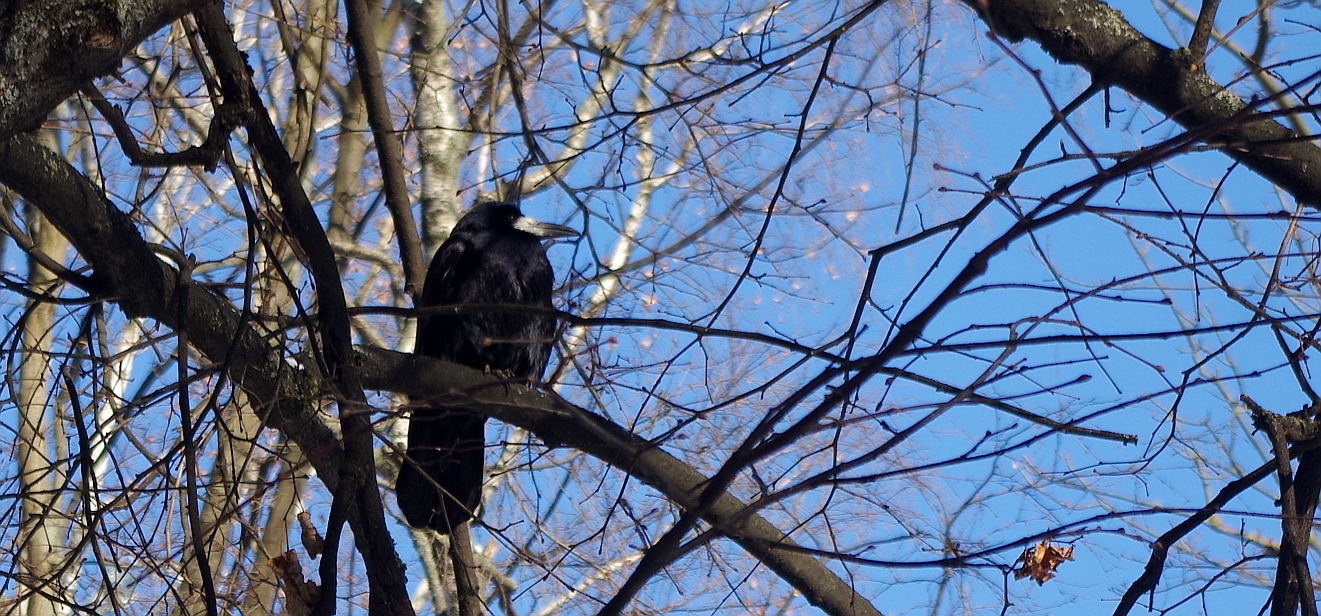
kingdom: Animalia
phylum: Chordata
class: Aves
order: Passeriformes
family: Corvidae
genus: Corvus
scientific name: Corvus frugilegus
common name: Rook
